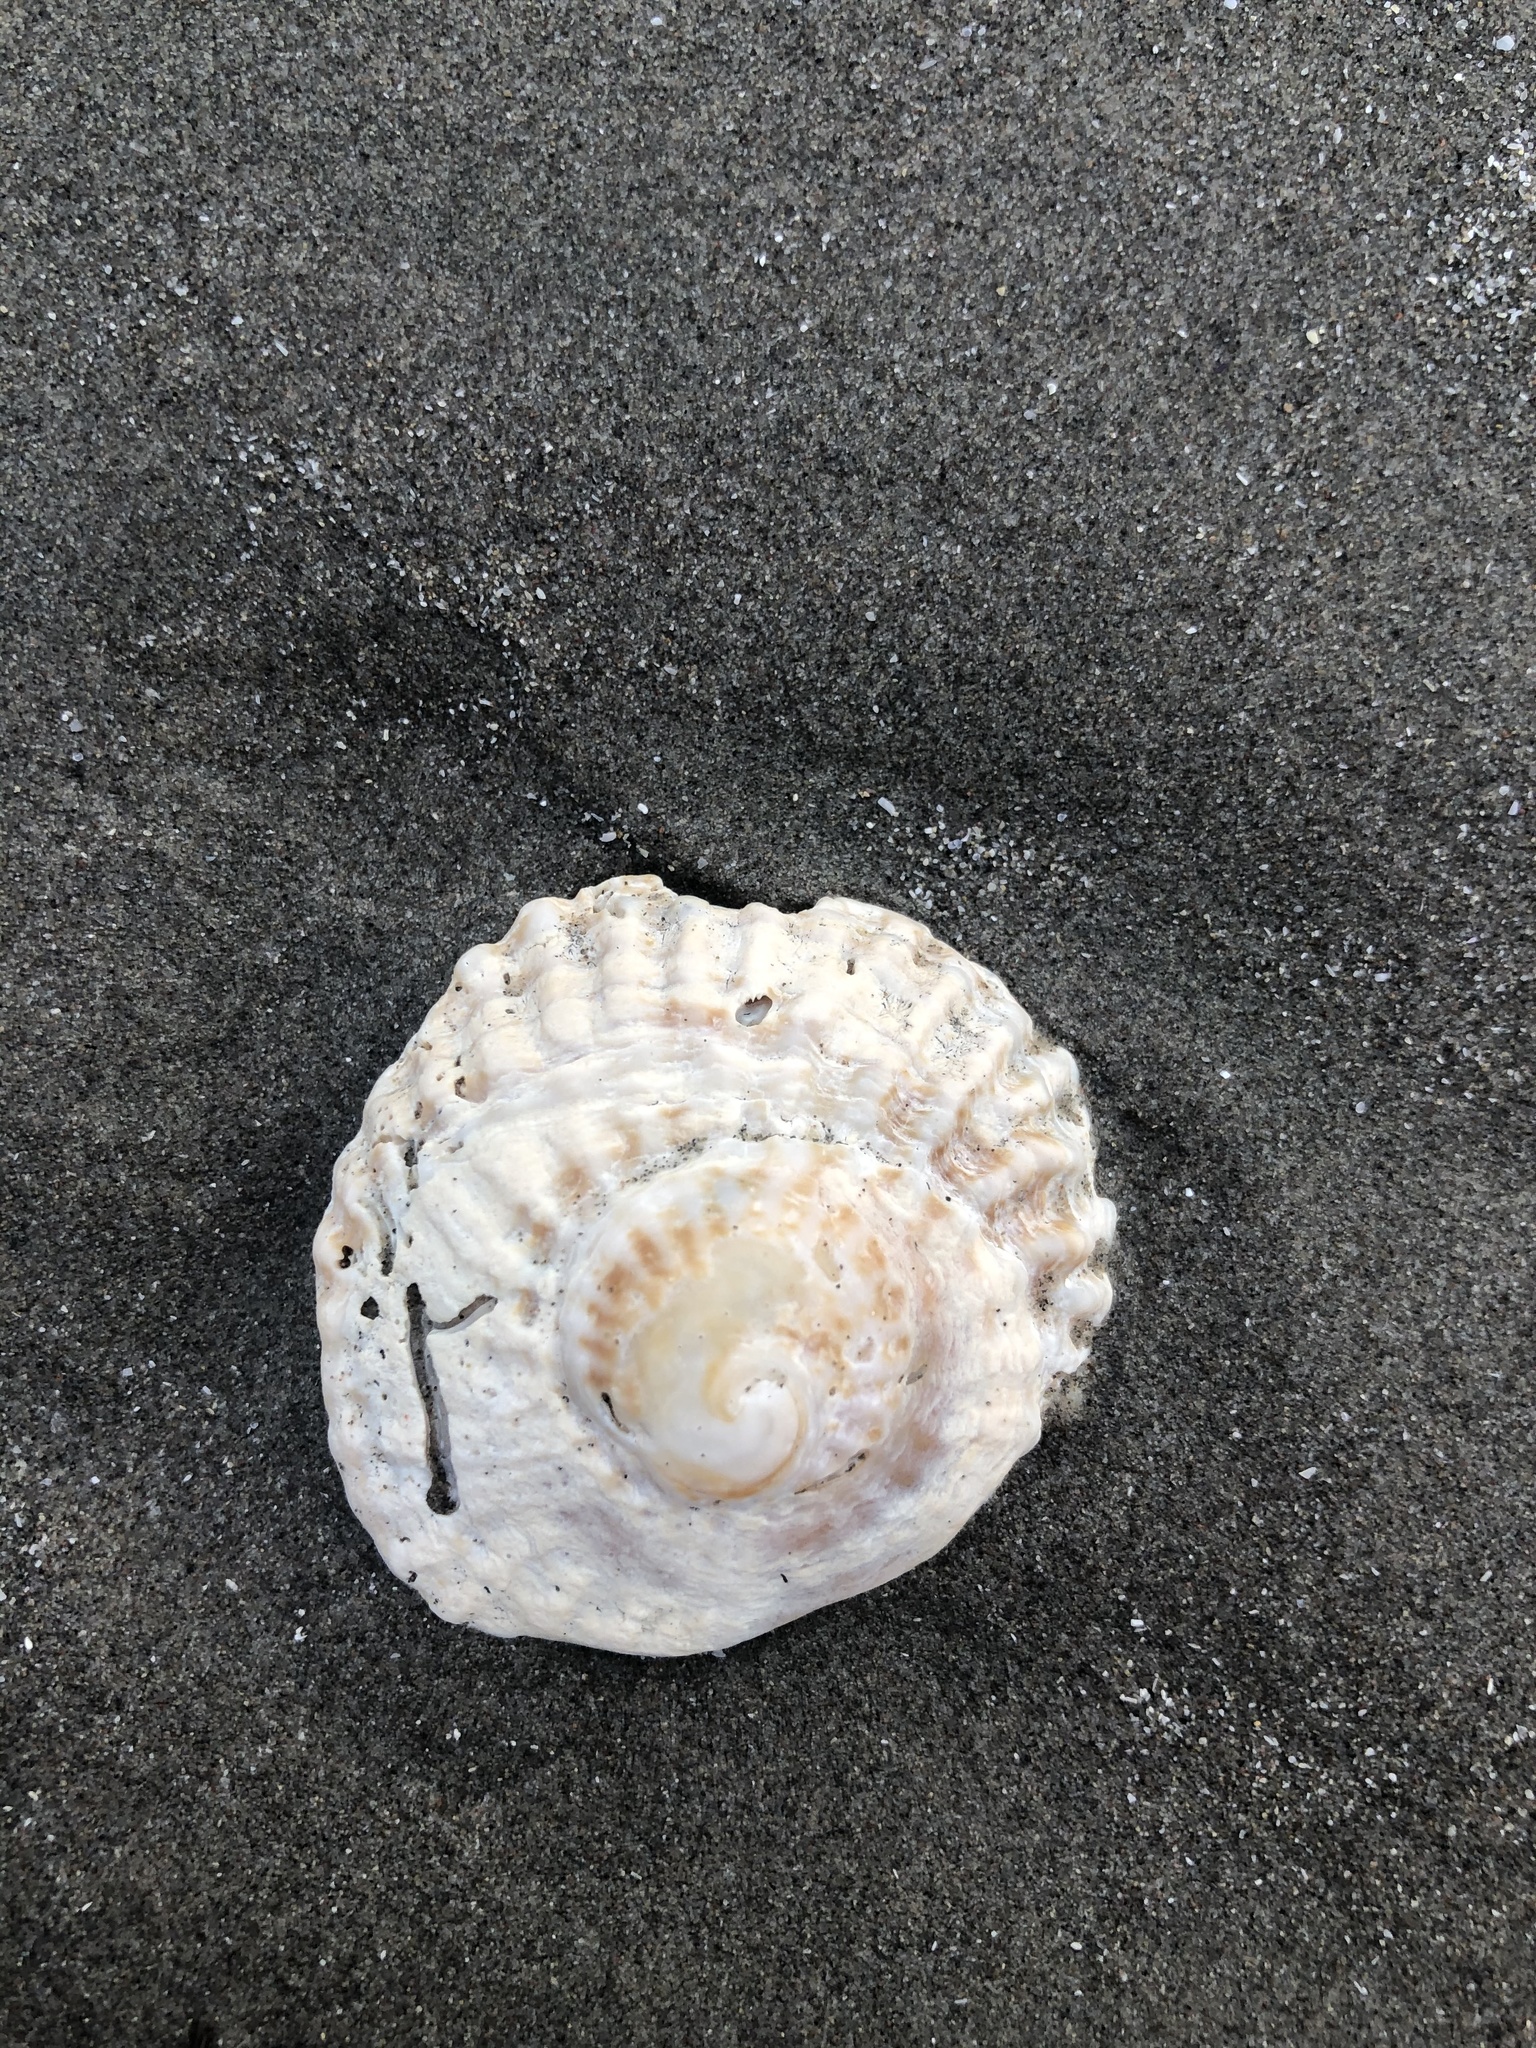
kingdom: Animalia
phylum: Mollusca
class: Gastropoda
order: Littorinimorpha
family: Calyptraeidae
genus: Trochita
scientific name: Trochita trochiformis
